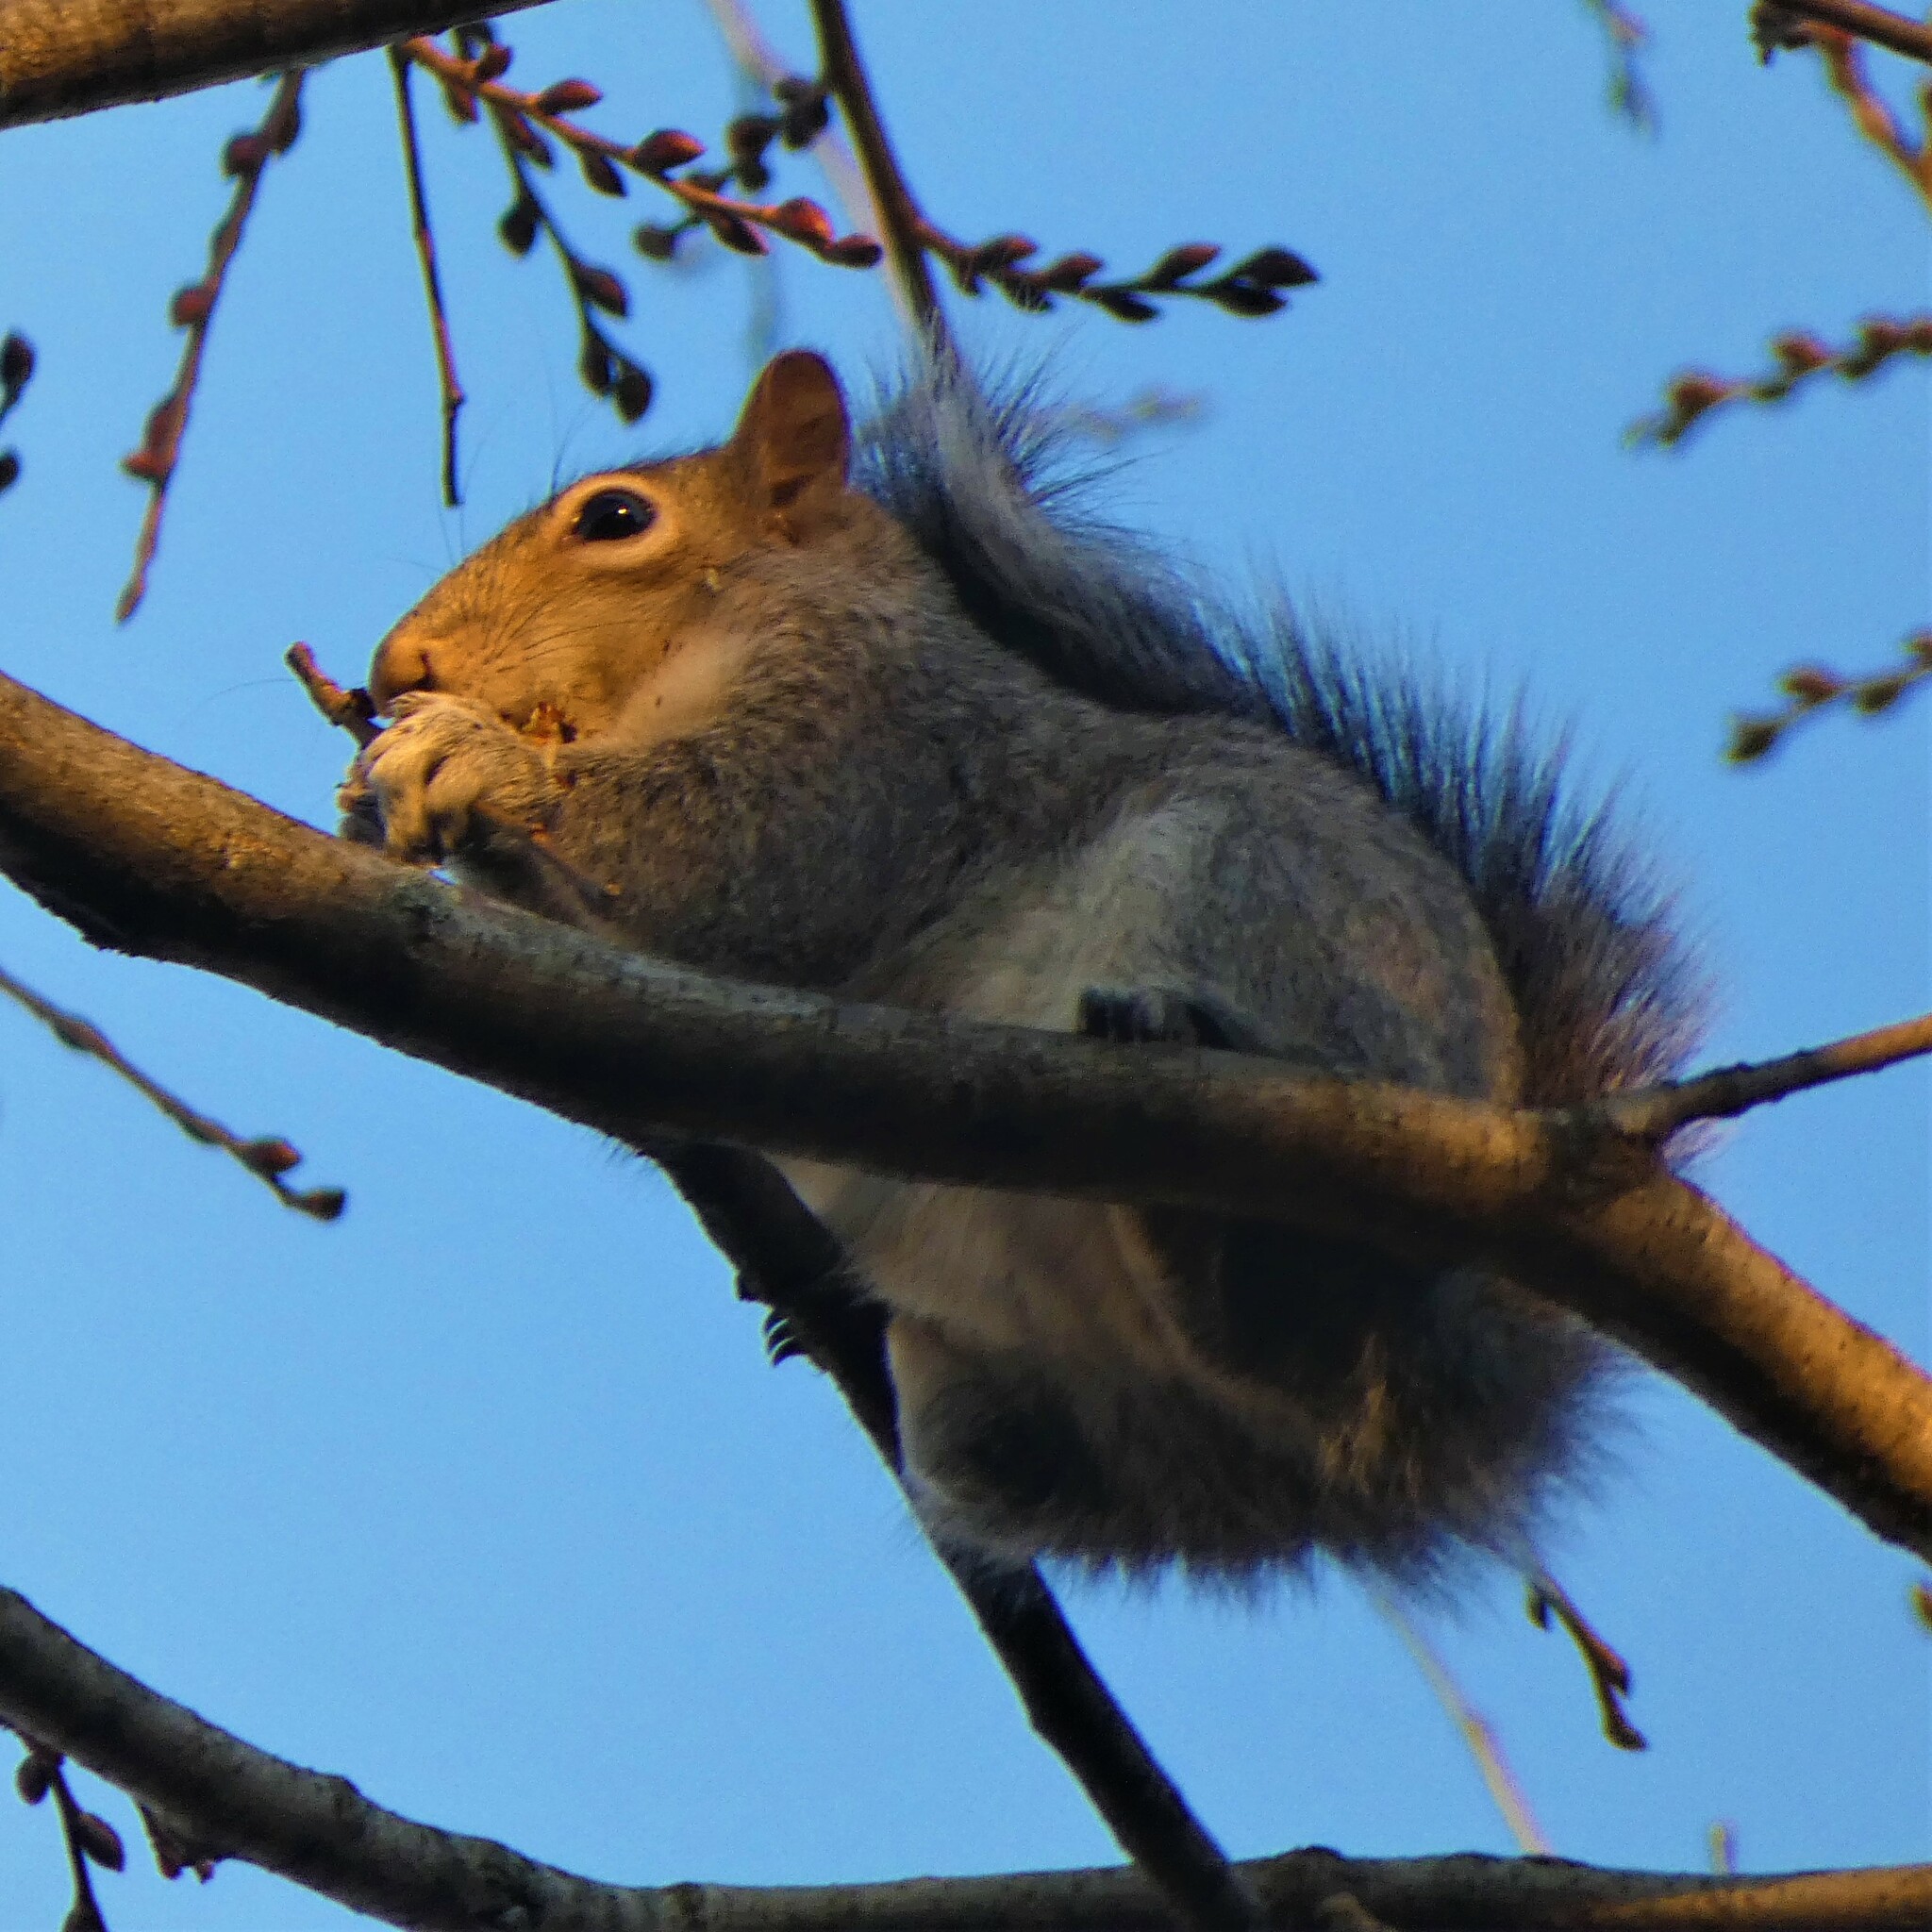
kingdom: Animalia
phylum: Chordata
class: Mammalia
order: Rodentia
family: Sciuridae
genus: Sciurus
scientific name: Sciurus carolinensis
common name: Eastern gray squirrel
